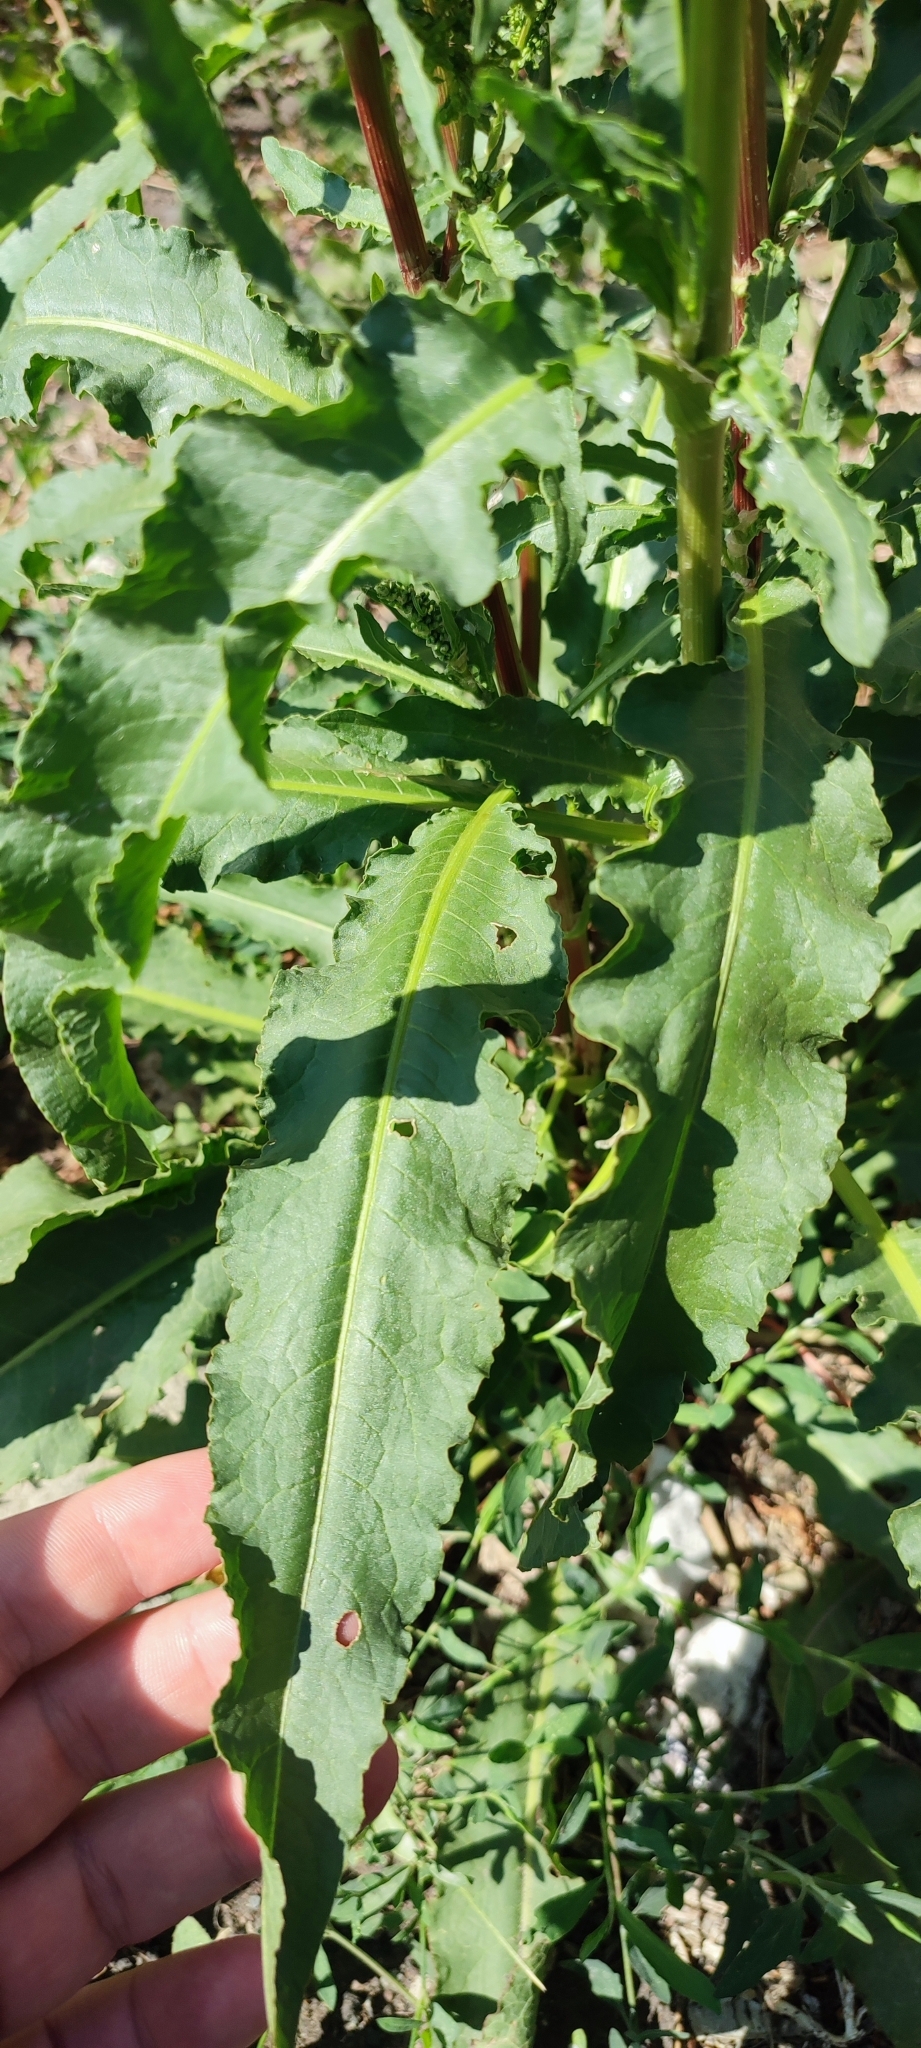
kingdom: Plantae
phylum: Tracheophyta
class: Magnoliopsida
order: Caryophyllales
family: Polygonaceae
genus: Rumex
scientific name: Rumex pseudonatronatus
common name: Field dock
